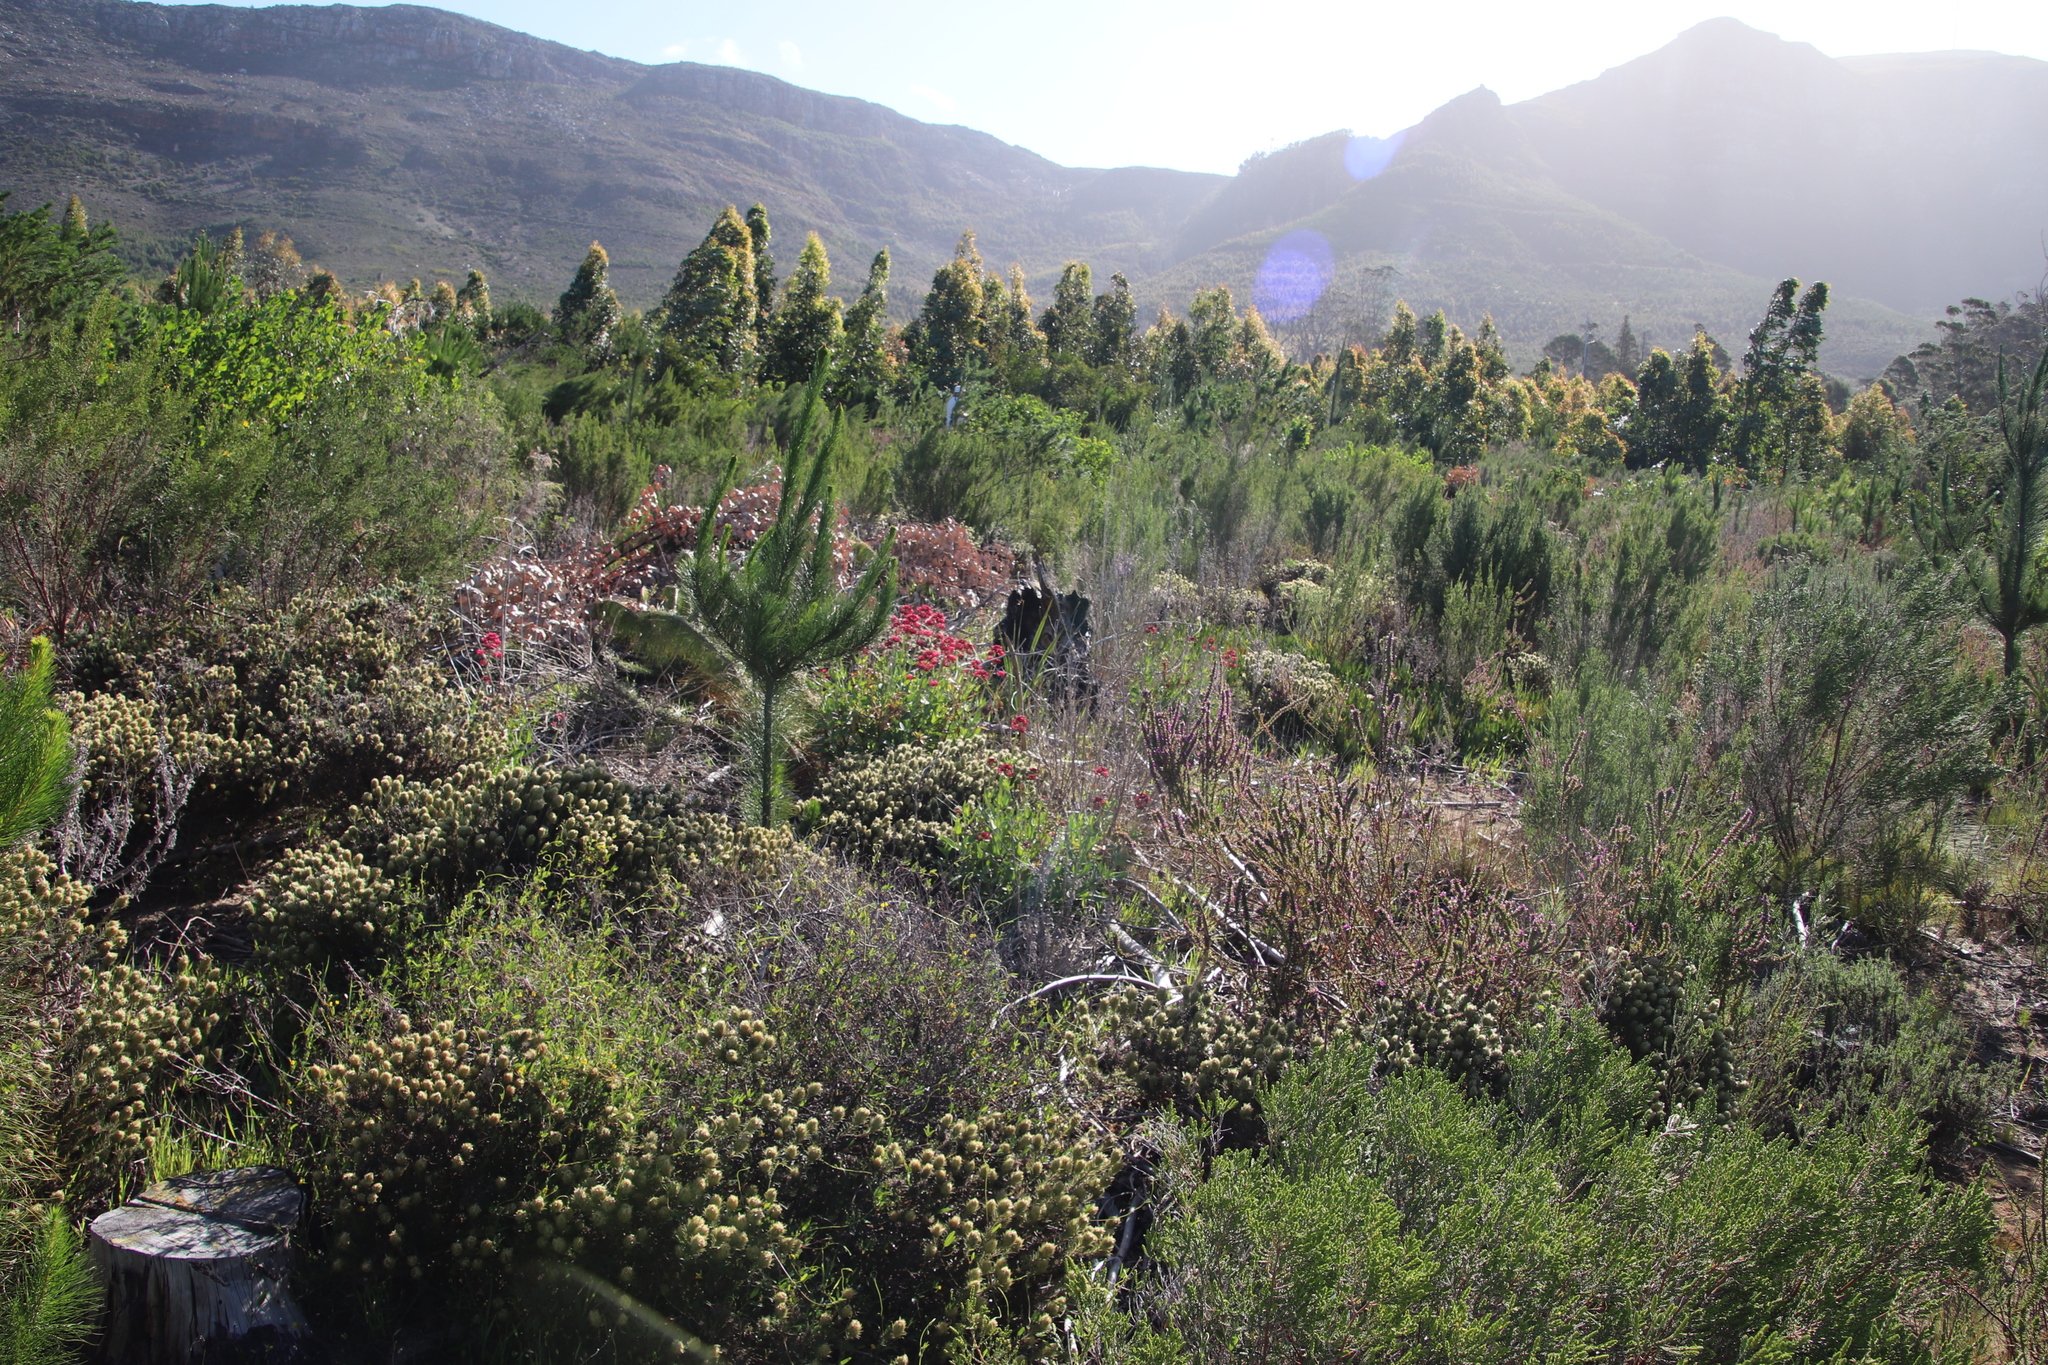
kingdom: Plantae
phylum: Tracheophyta
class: Magnoliopsida
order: Dipsacales
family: Caprifoliaceae
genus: Centranthus
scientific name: Centranthus ruber
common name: Red valerian
